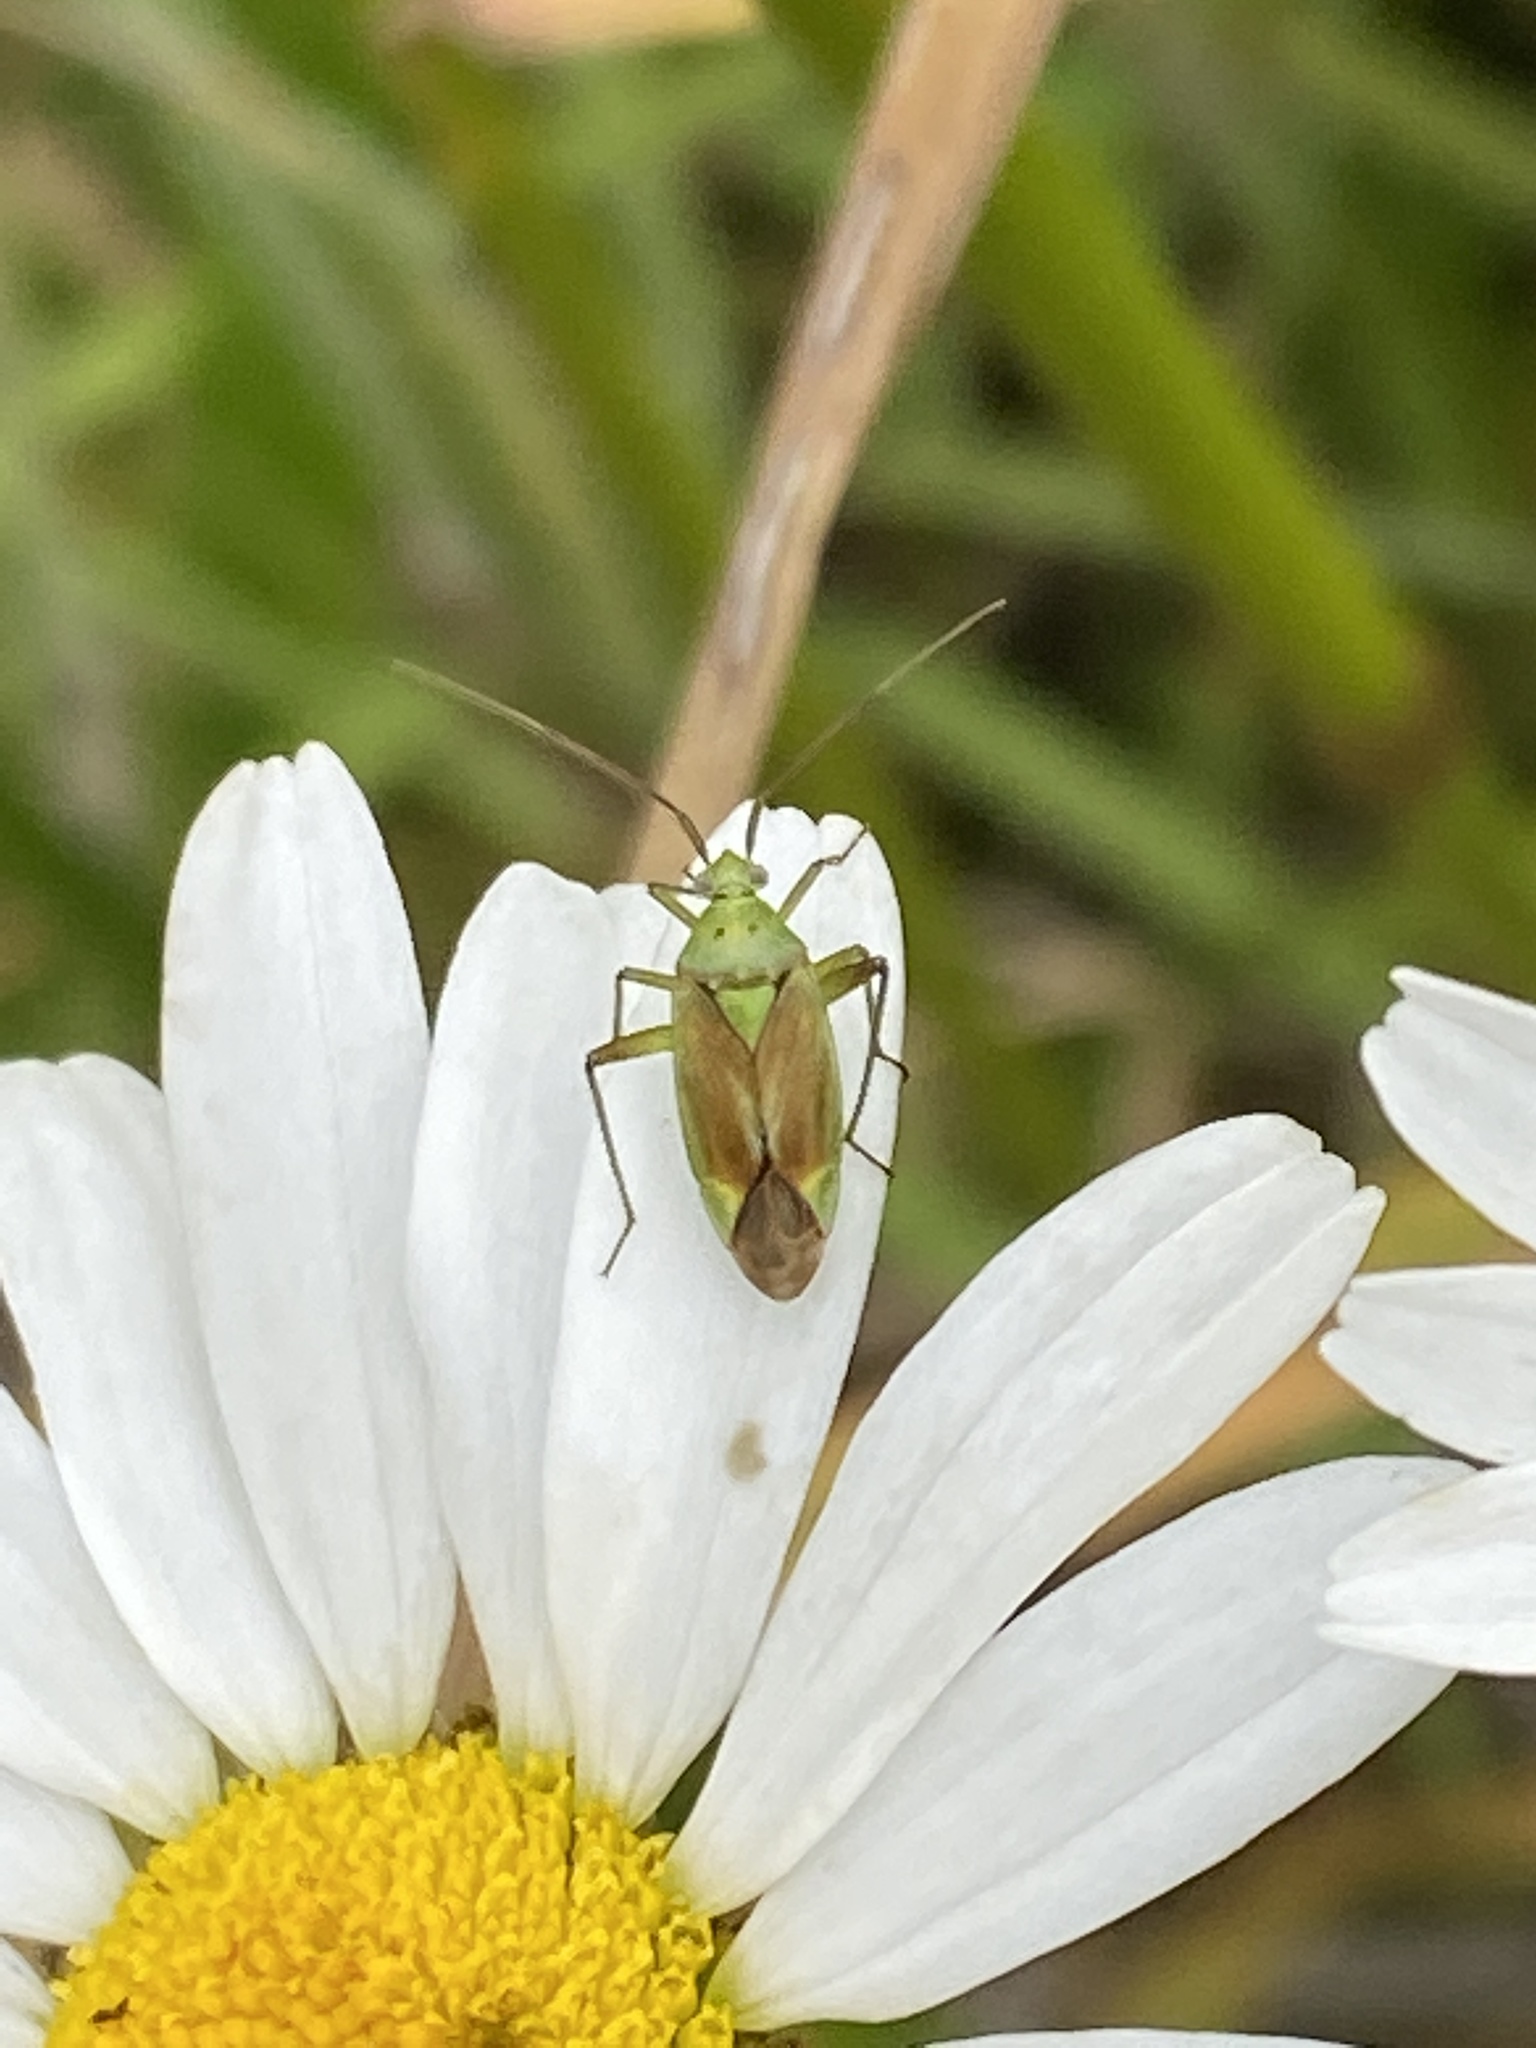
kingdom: Animalia
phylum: Arthropoda
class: Insecta
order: Hemiptera
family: Miridae
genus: Closterotomus
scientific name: Closterotomus norvegicus
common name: Plant bug
